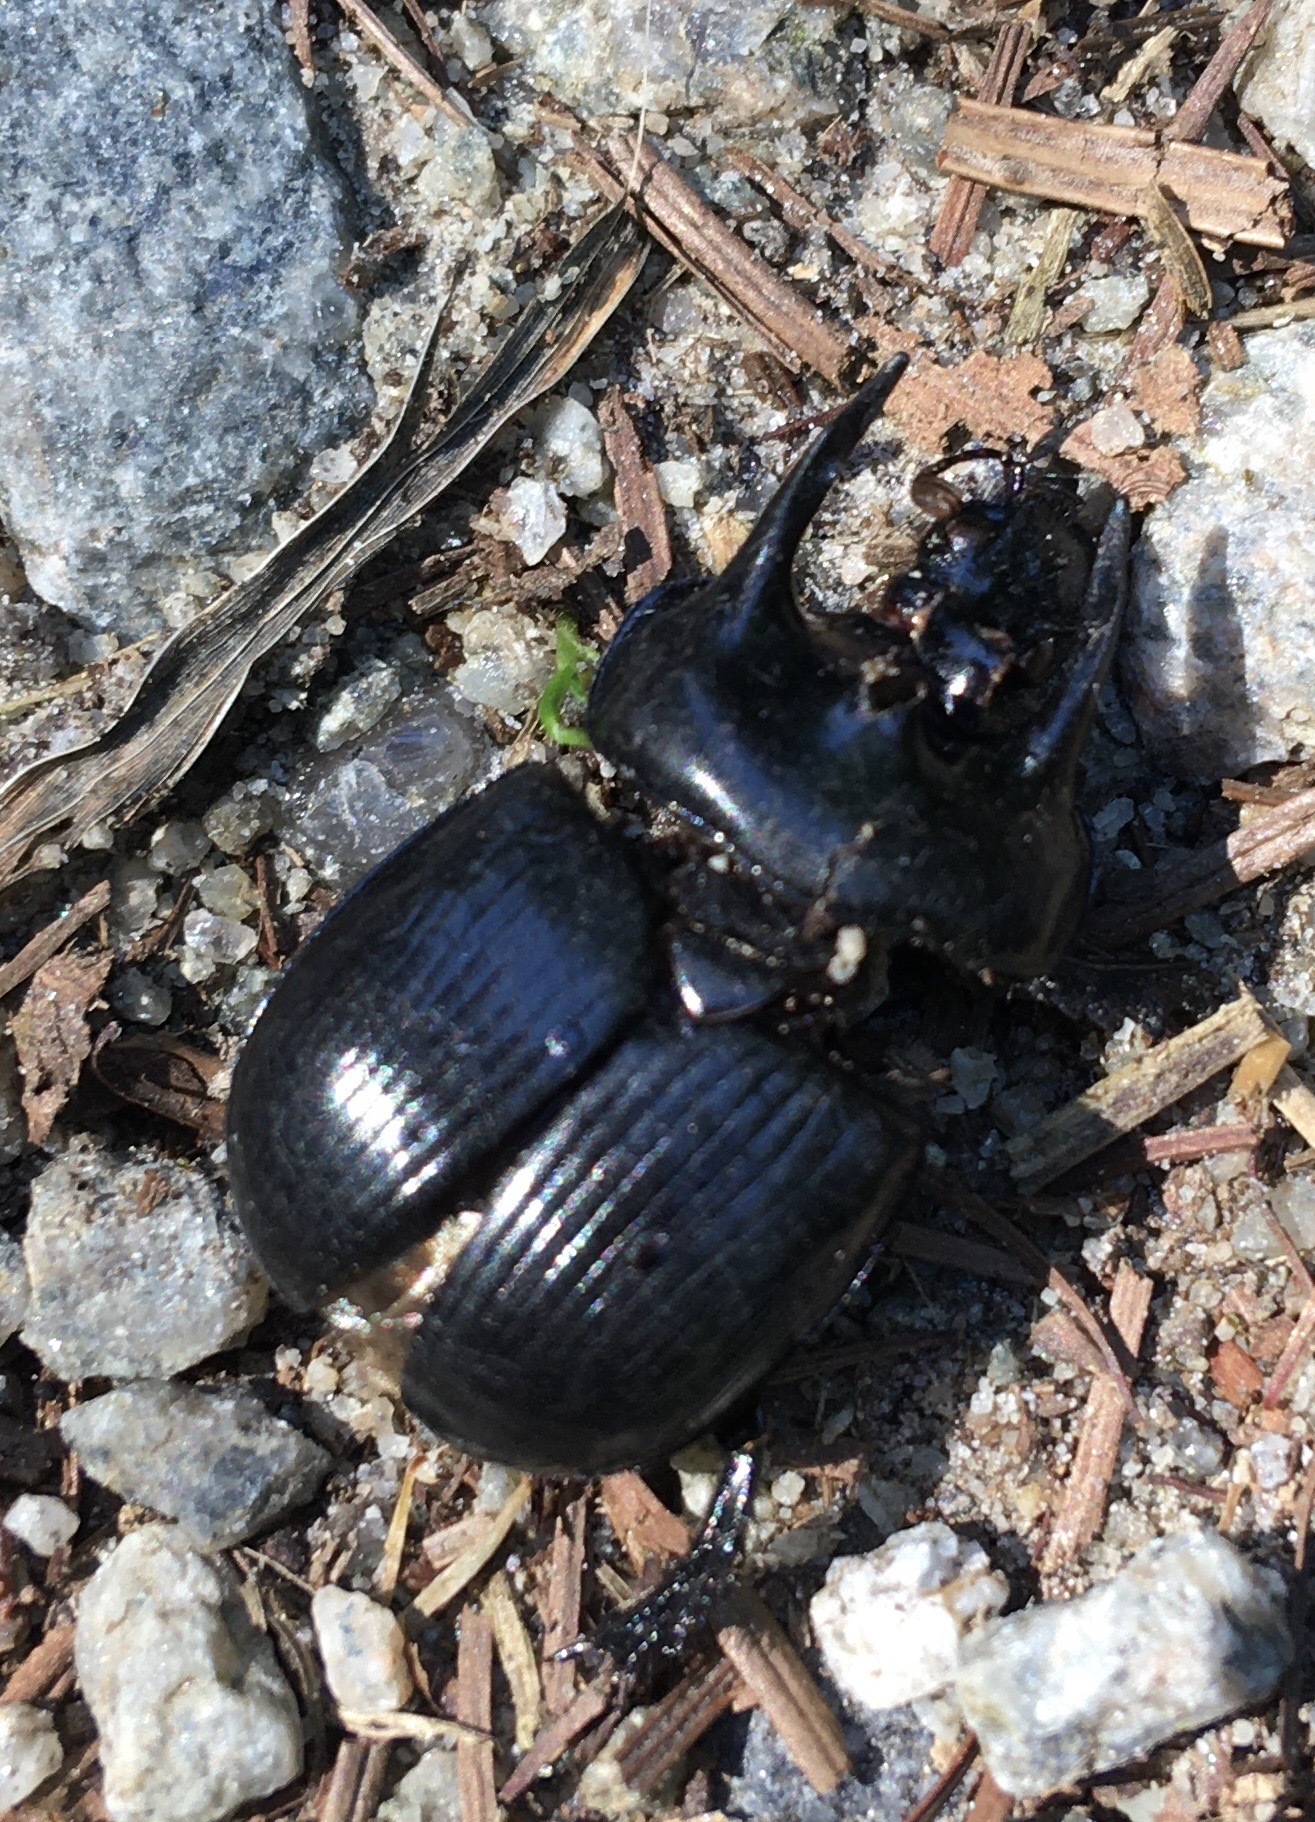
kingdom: Animalia
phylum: Arthropoda
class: Insecta
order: Coleoptera
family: Geotrupidae
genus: Typhaeus
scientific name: Typhaeus typhoeus
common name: Minotaur beetle
